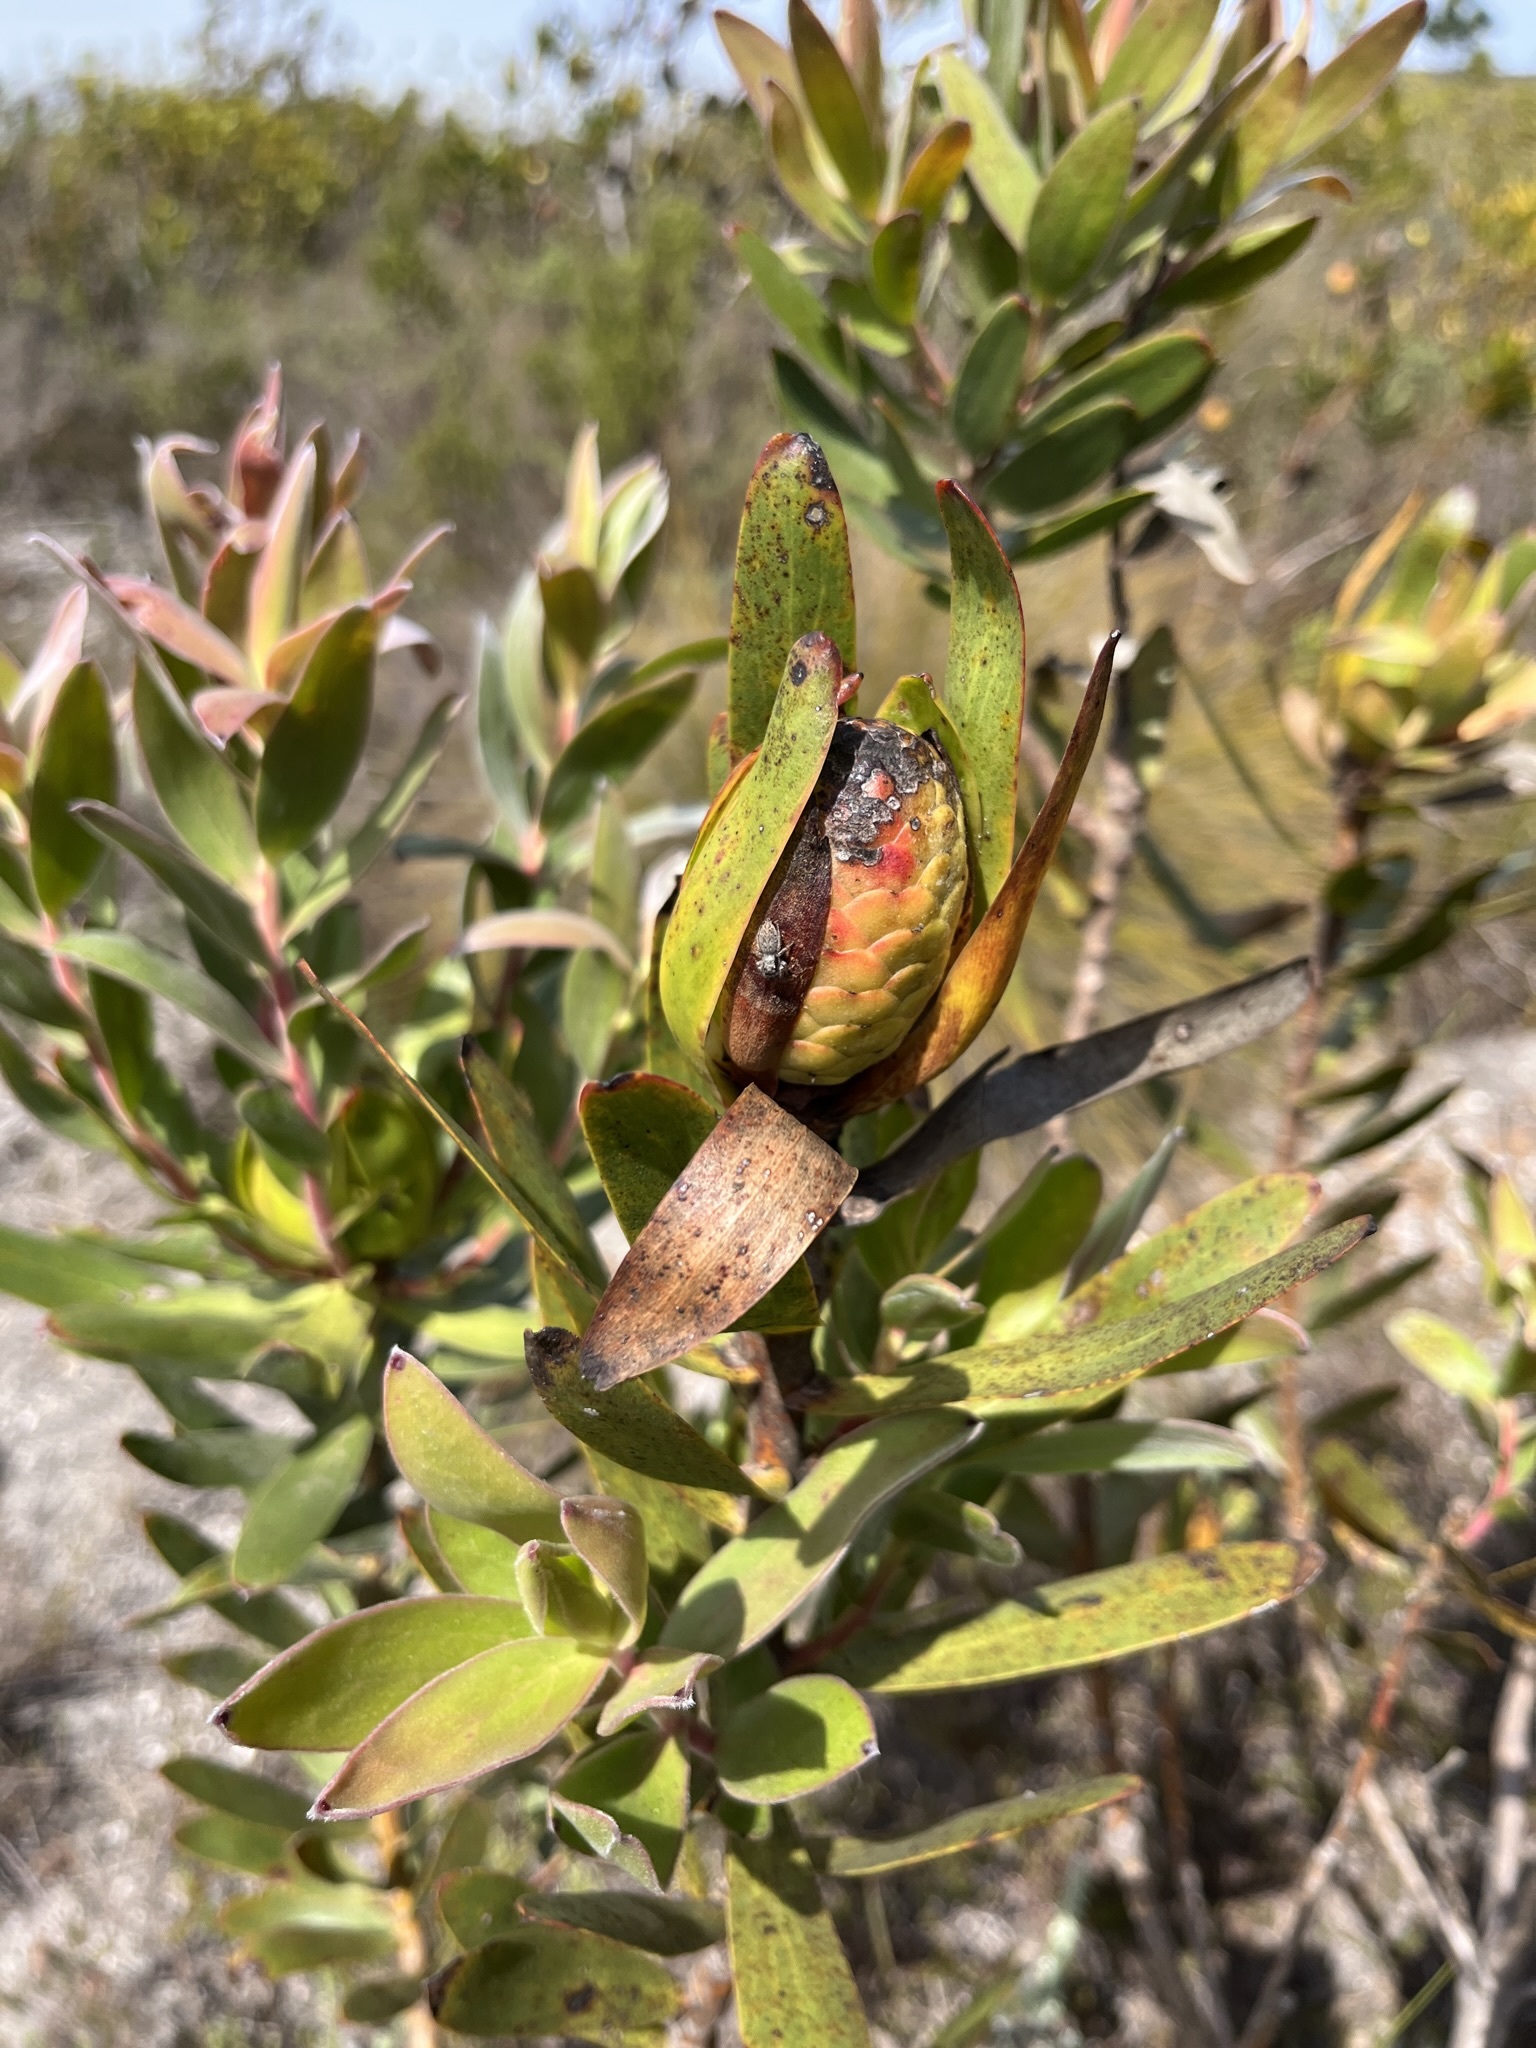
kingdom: Plantae
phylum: Tracheophyta
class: Magnoliopsida
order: Proteales
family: Proteaceae
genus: Leucadendron
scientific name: Leucadendron laureolum
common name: Golden sunshinebush
